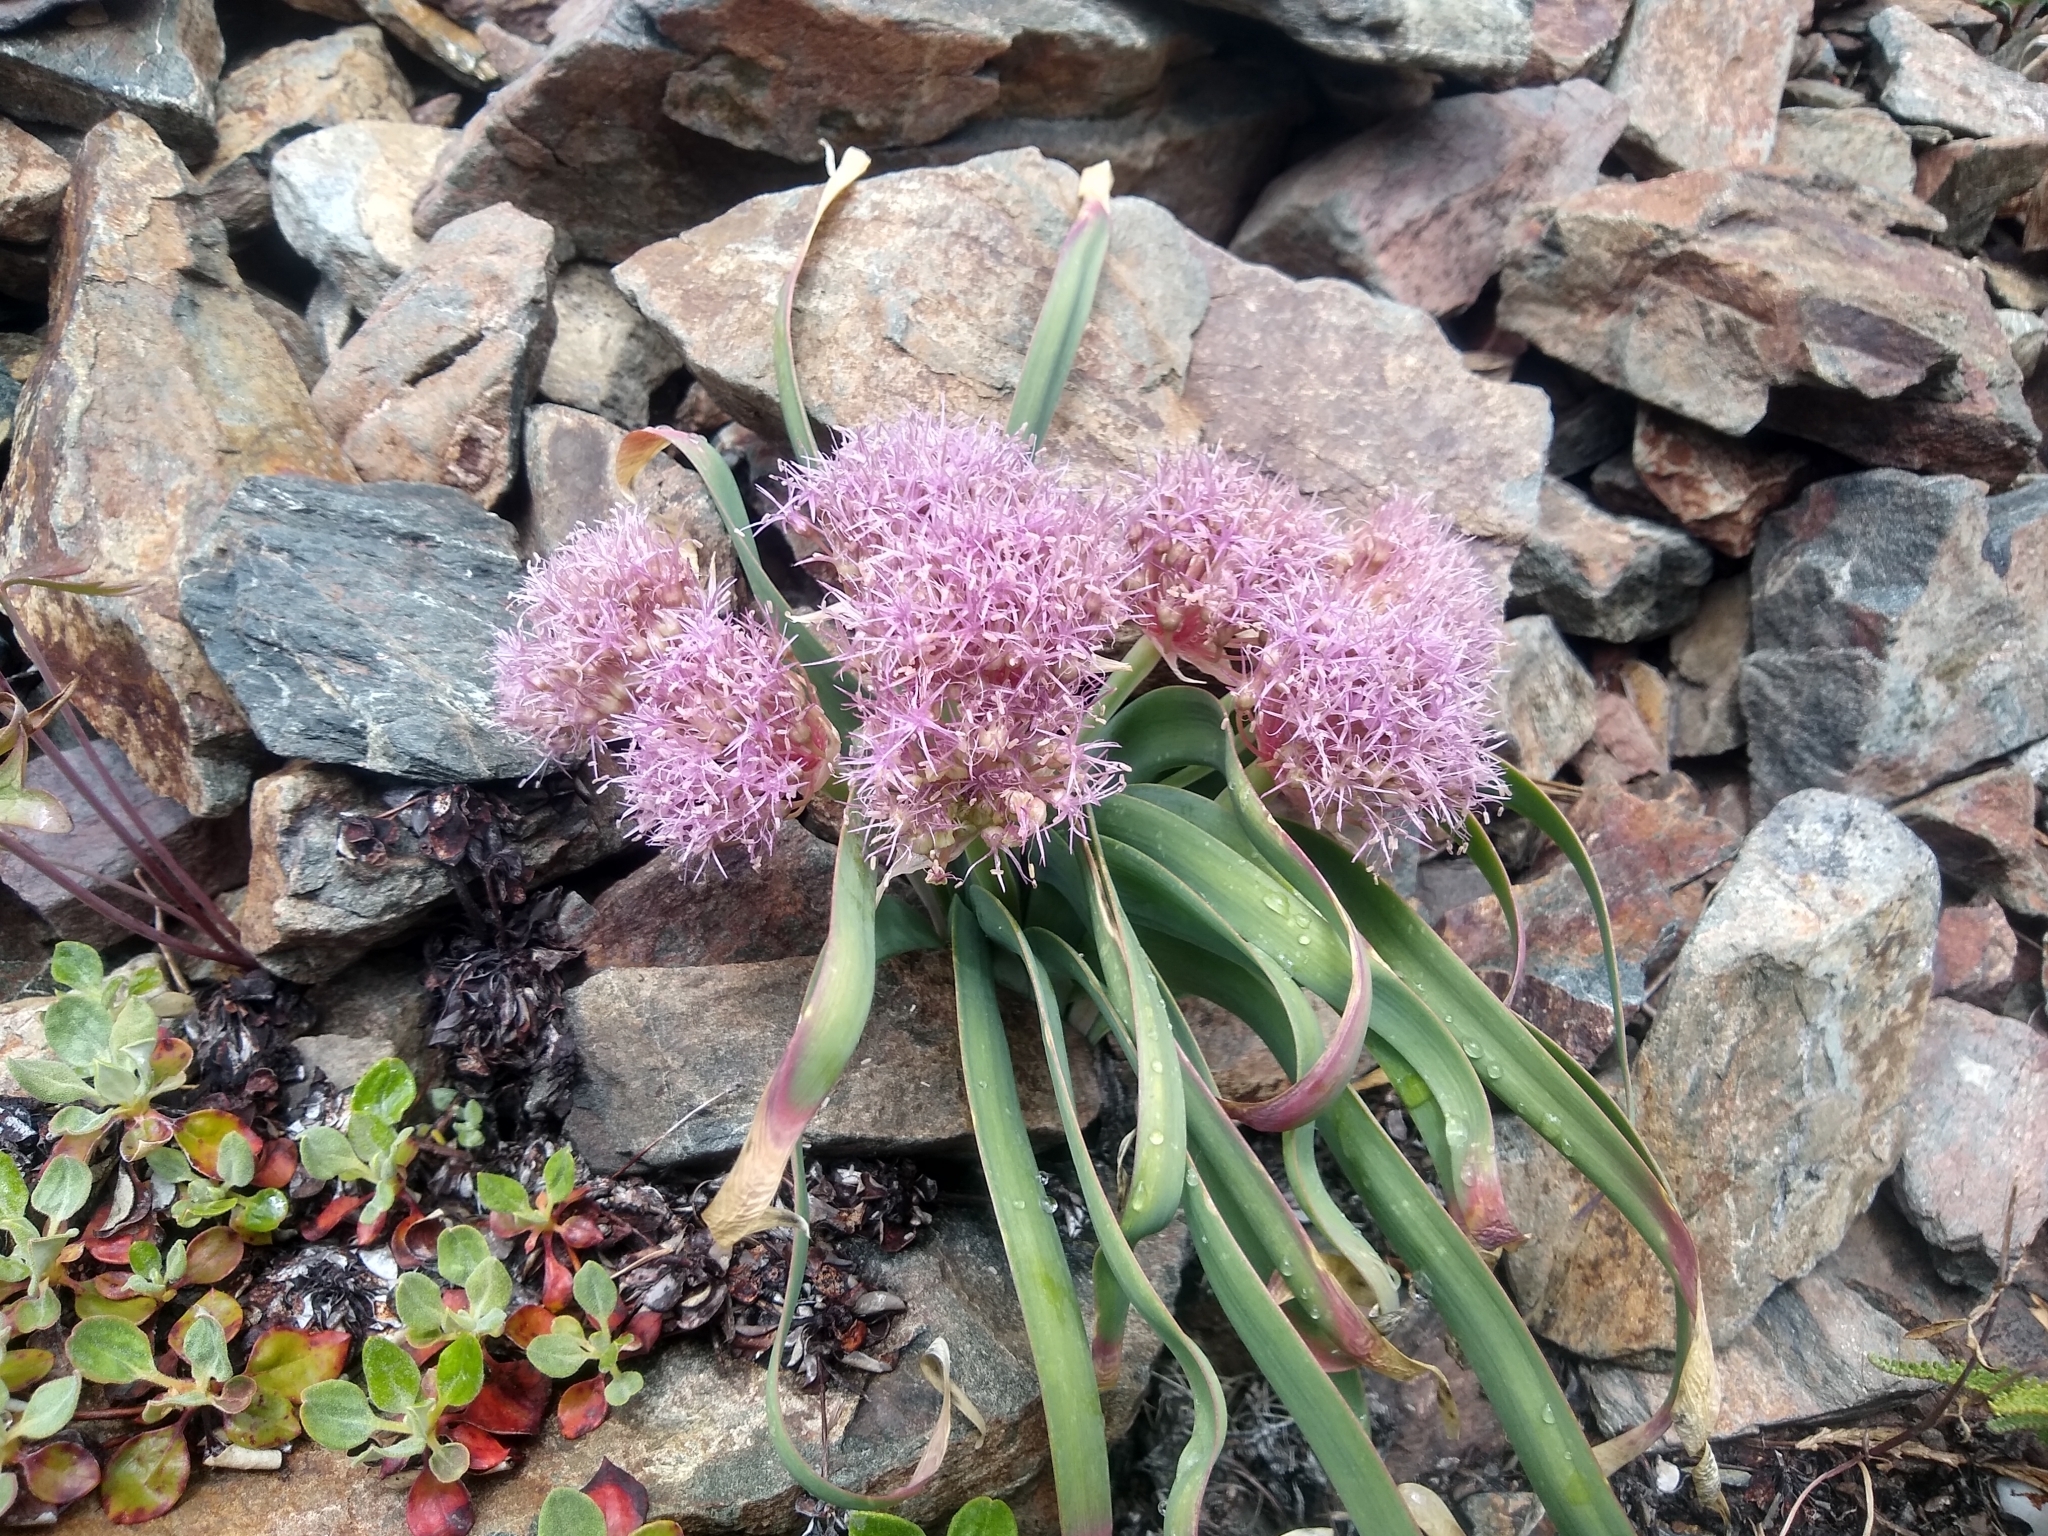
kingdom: Plantae
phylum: Tracheophyta
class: Liliopsida
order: Asparagales
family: Amaryllidaceae
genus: Allium
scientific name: Allium platycaule
